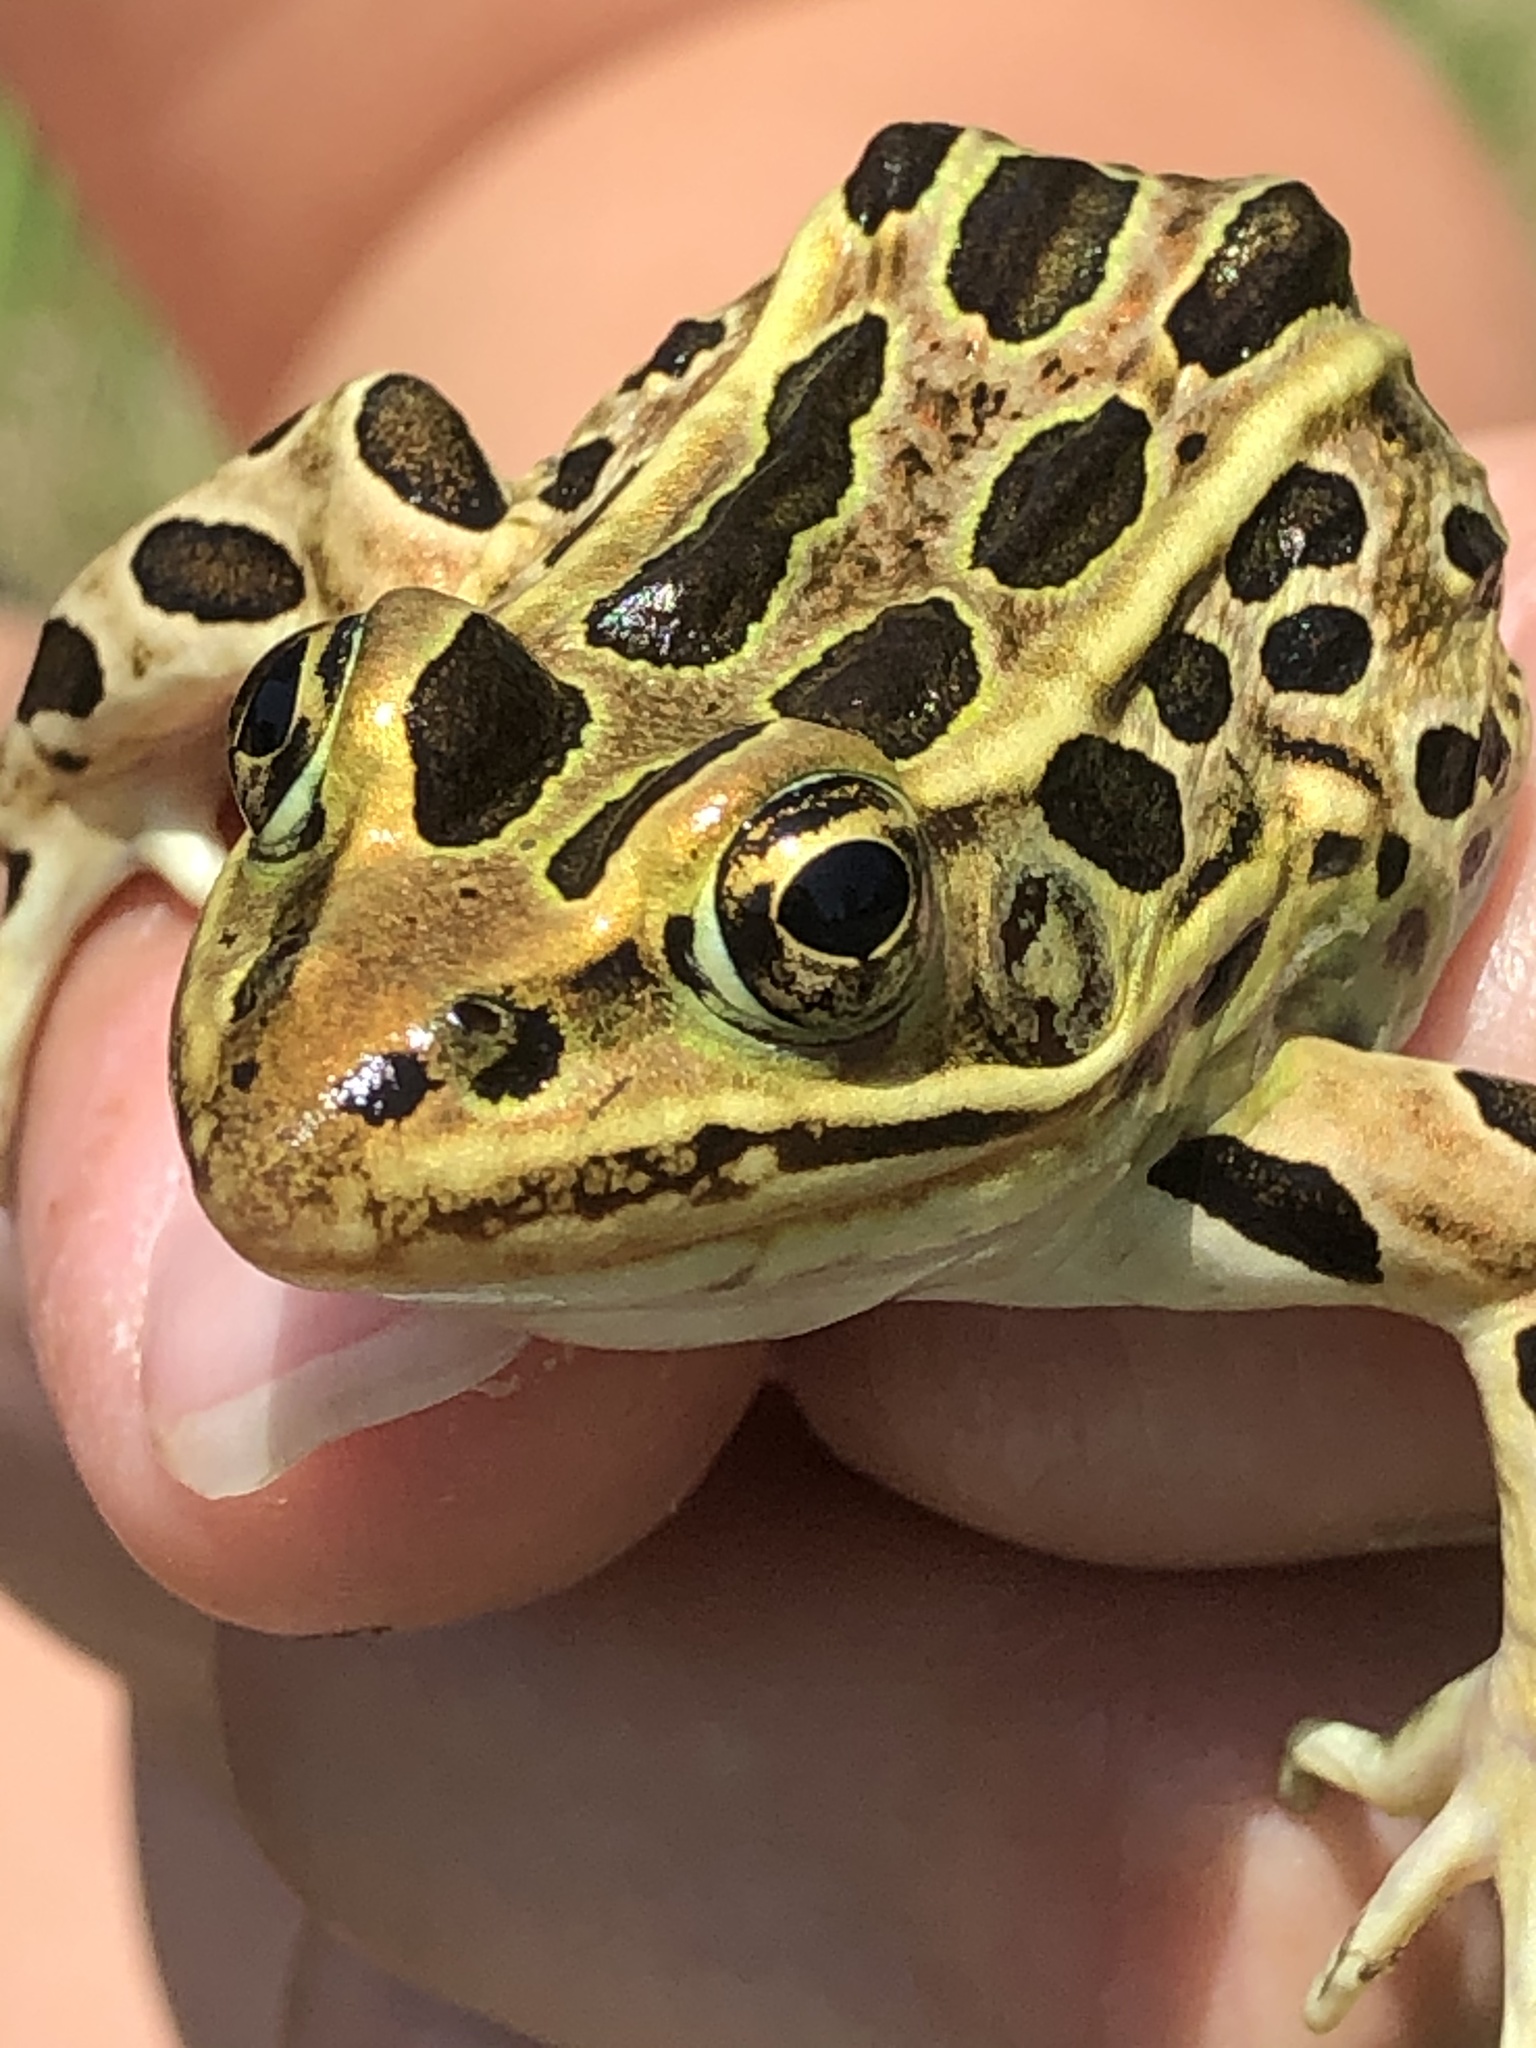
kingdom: Animalia
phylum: Chordata
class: Amphibia
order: Anura
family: Ranidae
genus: Lithobates
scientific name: Lithobates pipiens
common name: Northern leopard frog
